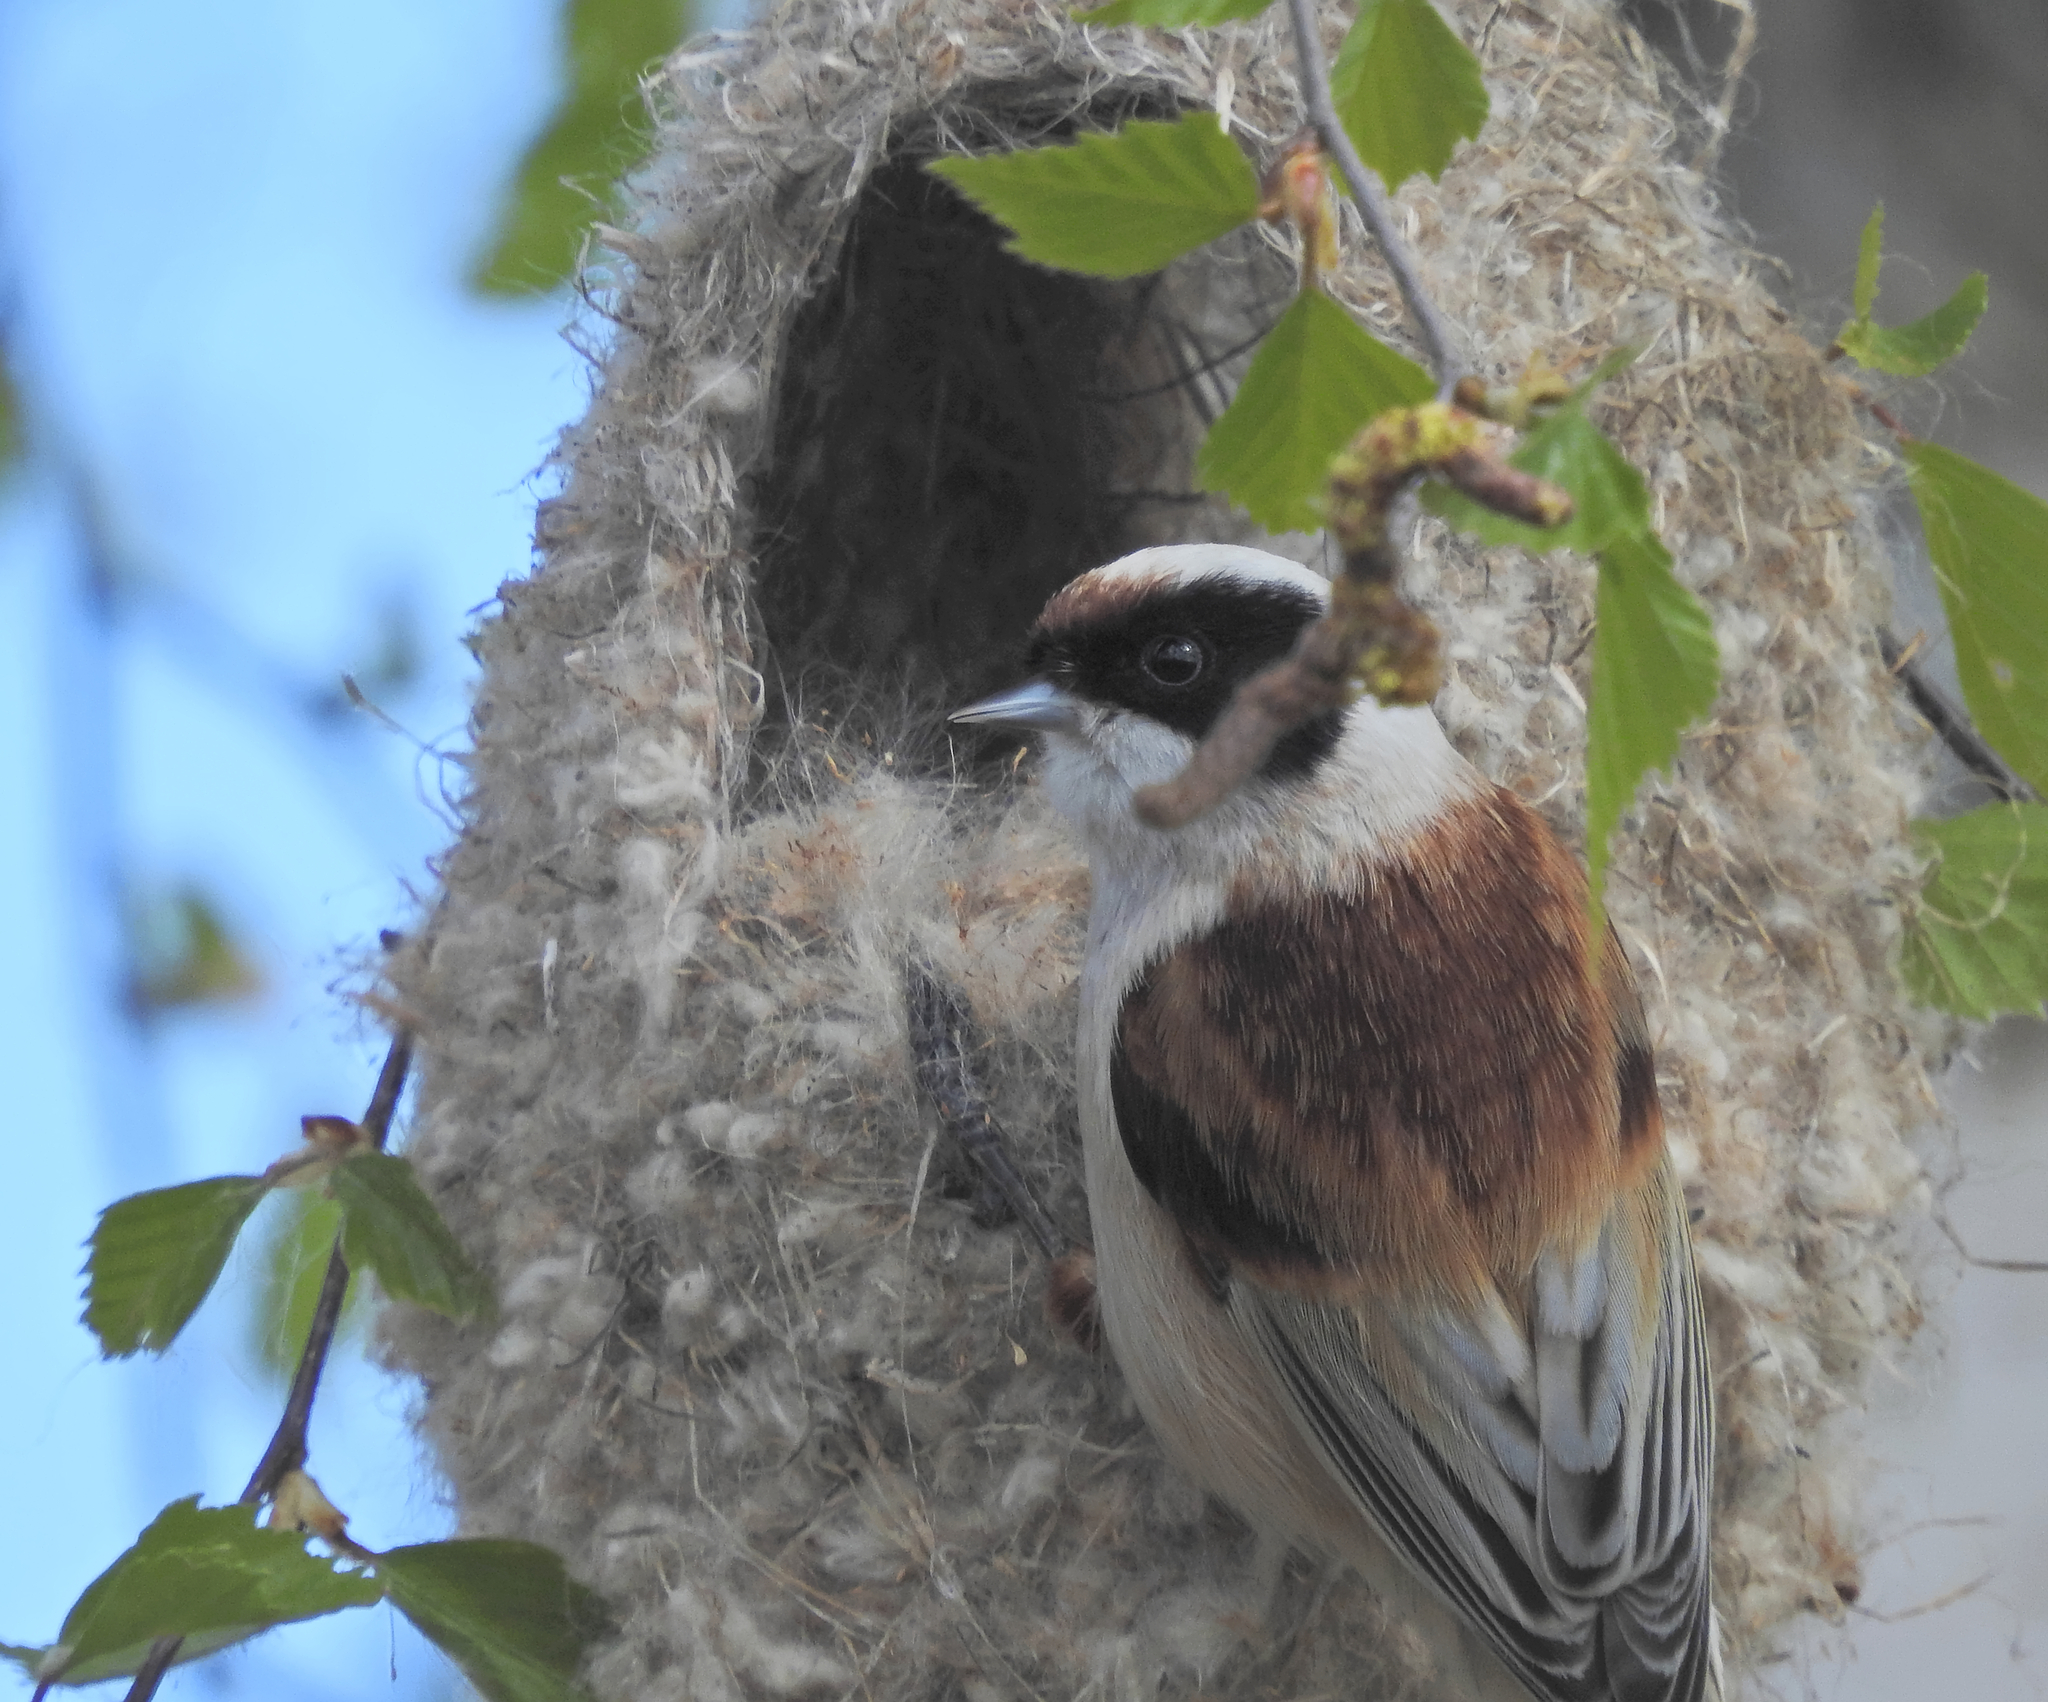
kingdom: Animalia
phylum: Chordata
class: Aves
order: Passeriformes
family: Remizidae
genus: Remiz
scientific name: Remiz pendulinus
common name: Eurasian penduline tit
